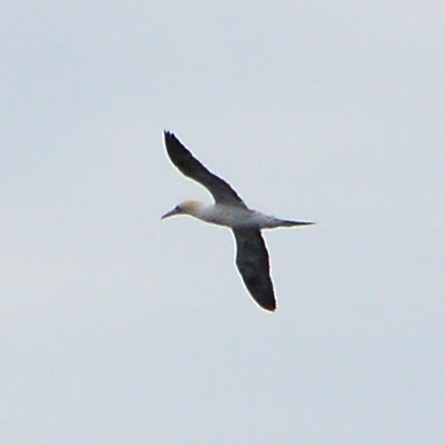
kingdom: Animalia
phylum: Chordata
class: Aves
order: Suliformes
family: Sulidae
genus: Morus
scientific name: Morus bassanus
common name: Northern gannet
